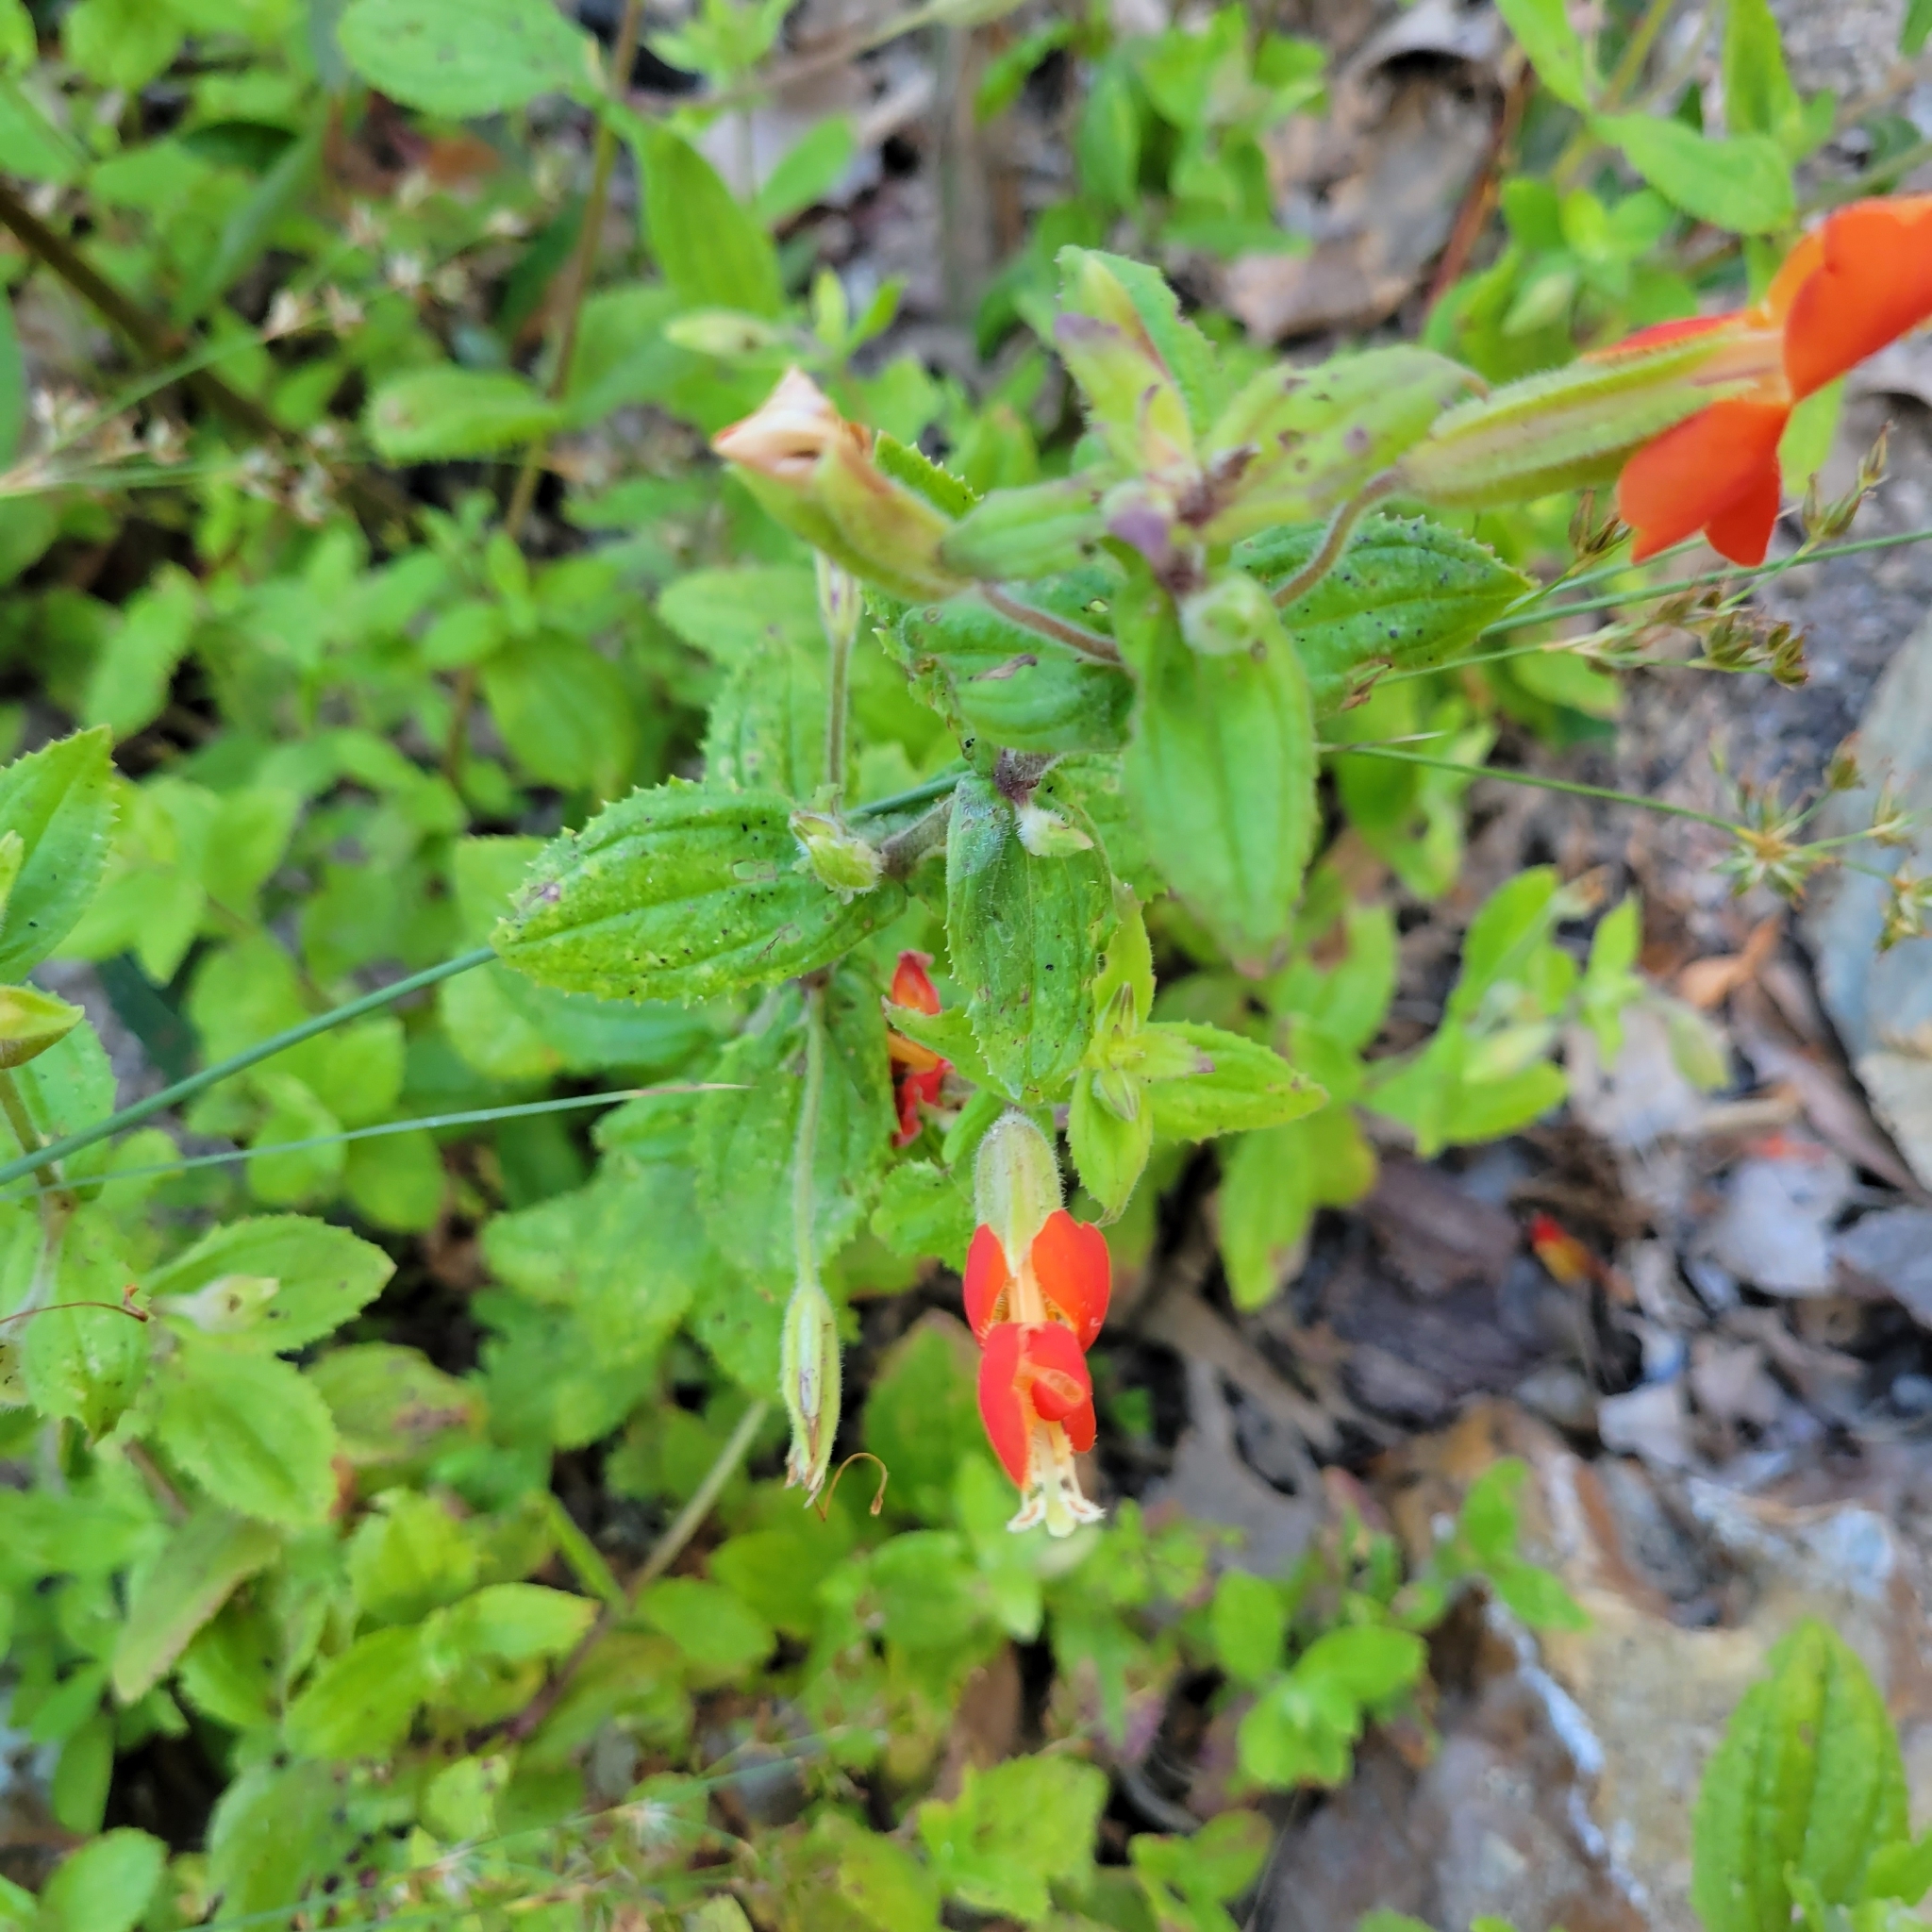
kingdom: Plantae
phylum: Tracheophyta
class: Magnoliopsida
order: Lamiales
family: Phrymaceae
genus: Erythranthe
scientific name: Erythranthe cardinalis
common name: Scarlet monkey-flower
